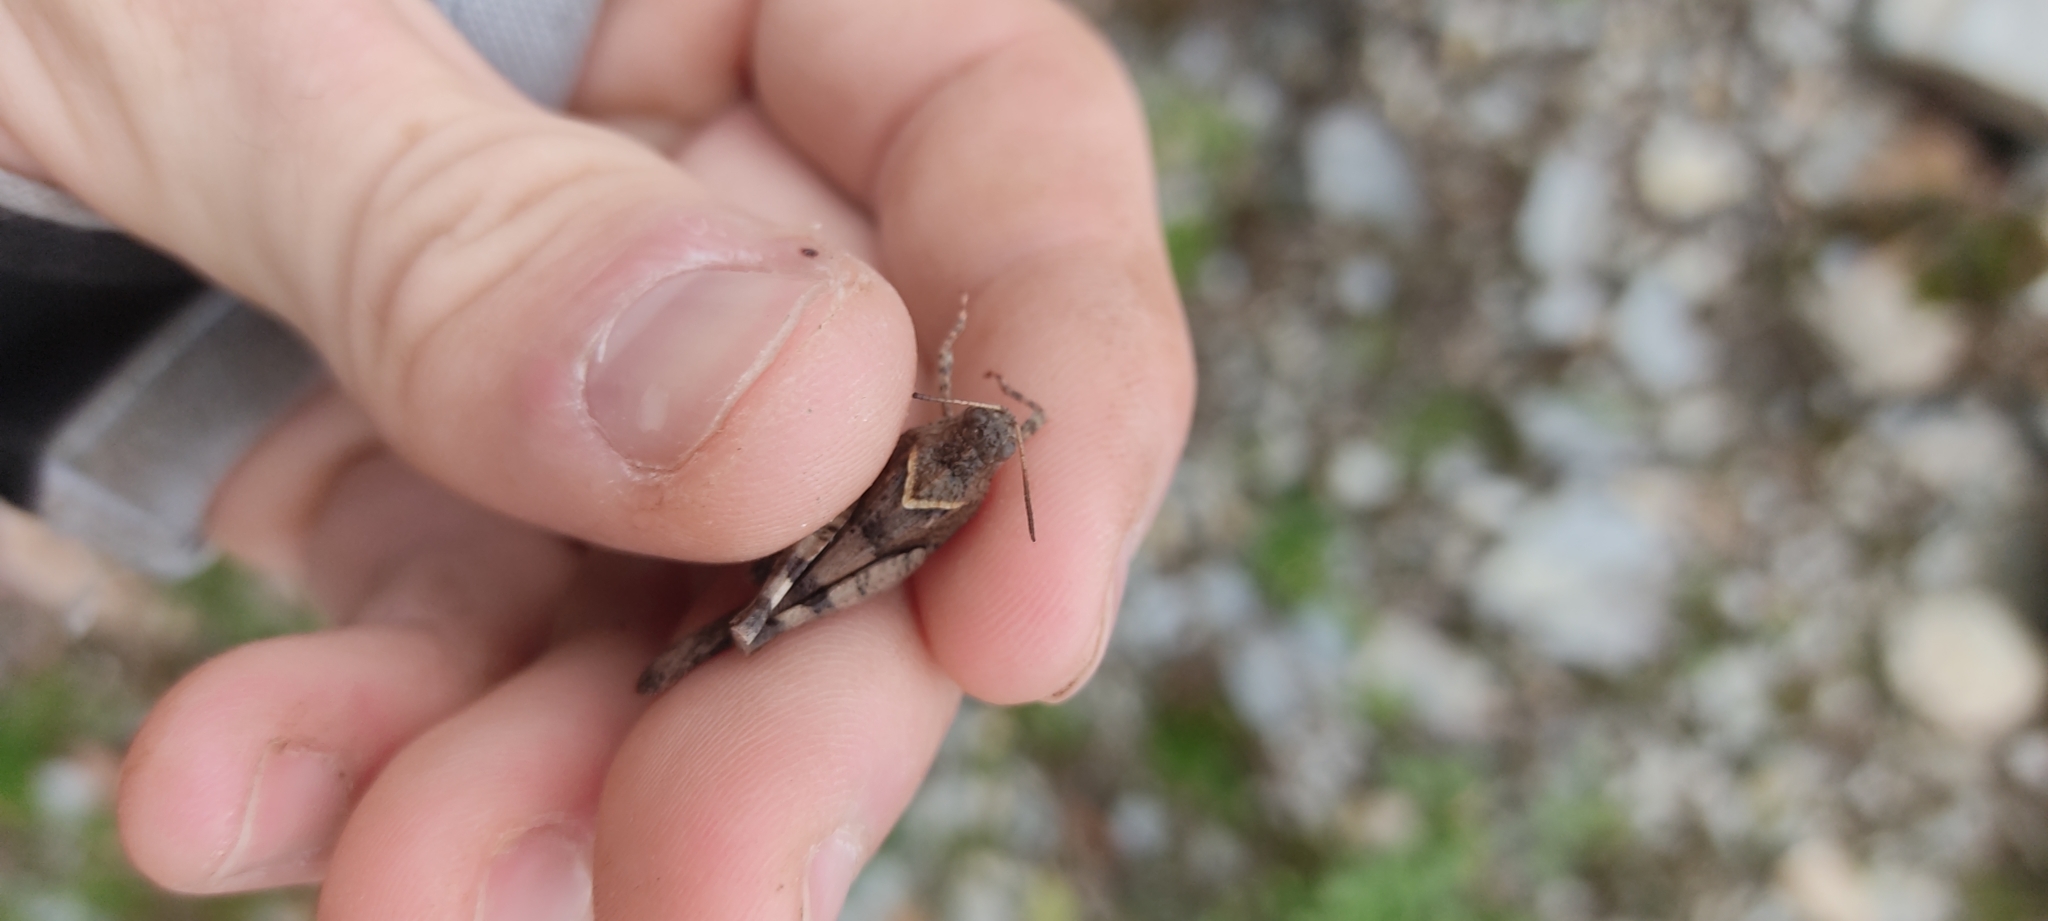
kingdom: Animalia
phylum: Arthropoda
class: Insecta
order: Orthoptera
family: Acrididae
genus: Oedipoda
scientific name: Oedipoda caerulescens
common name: Blue-winged grasshopper
